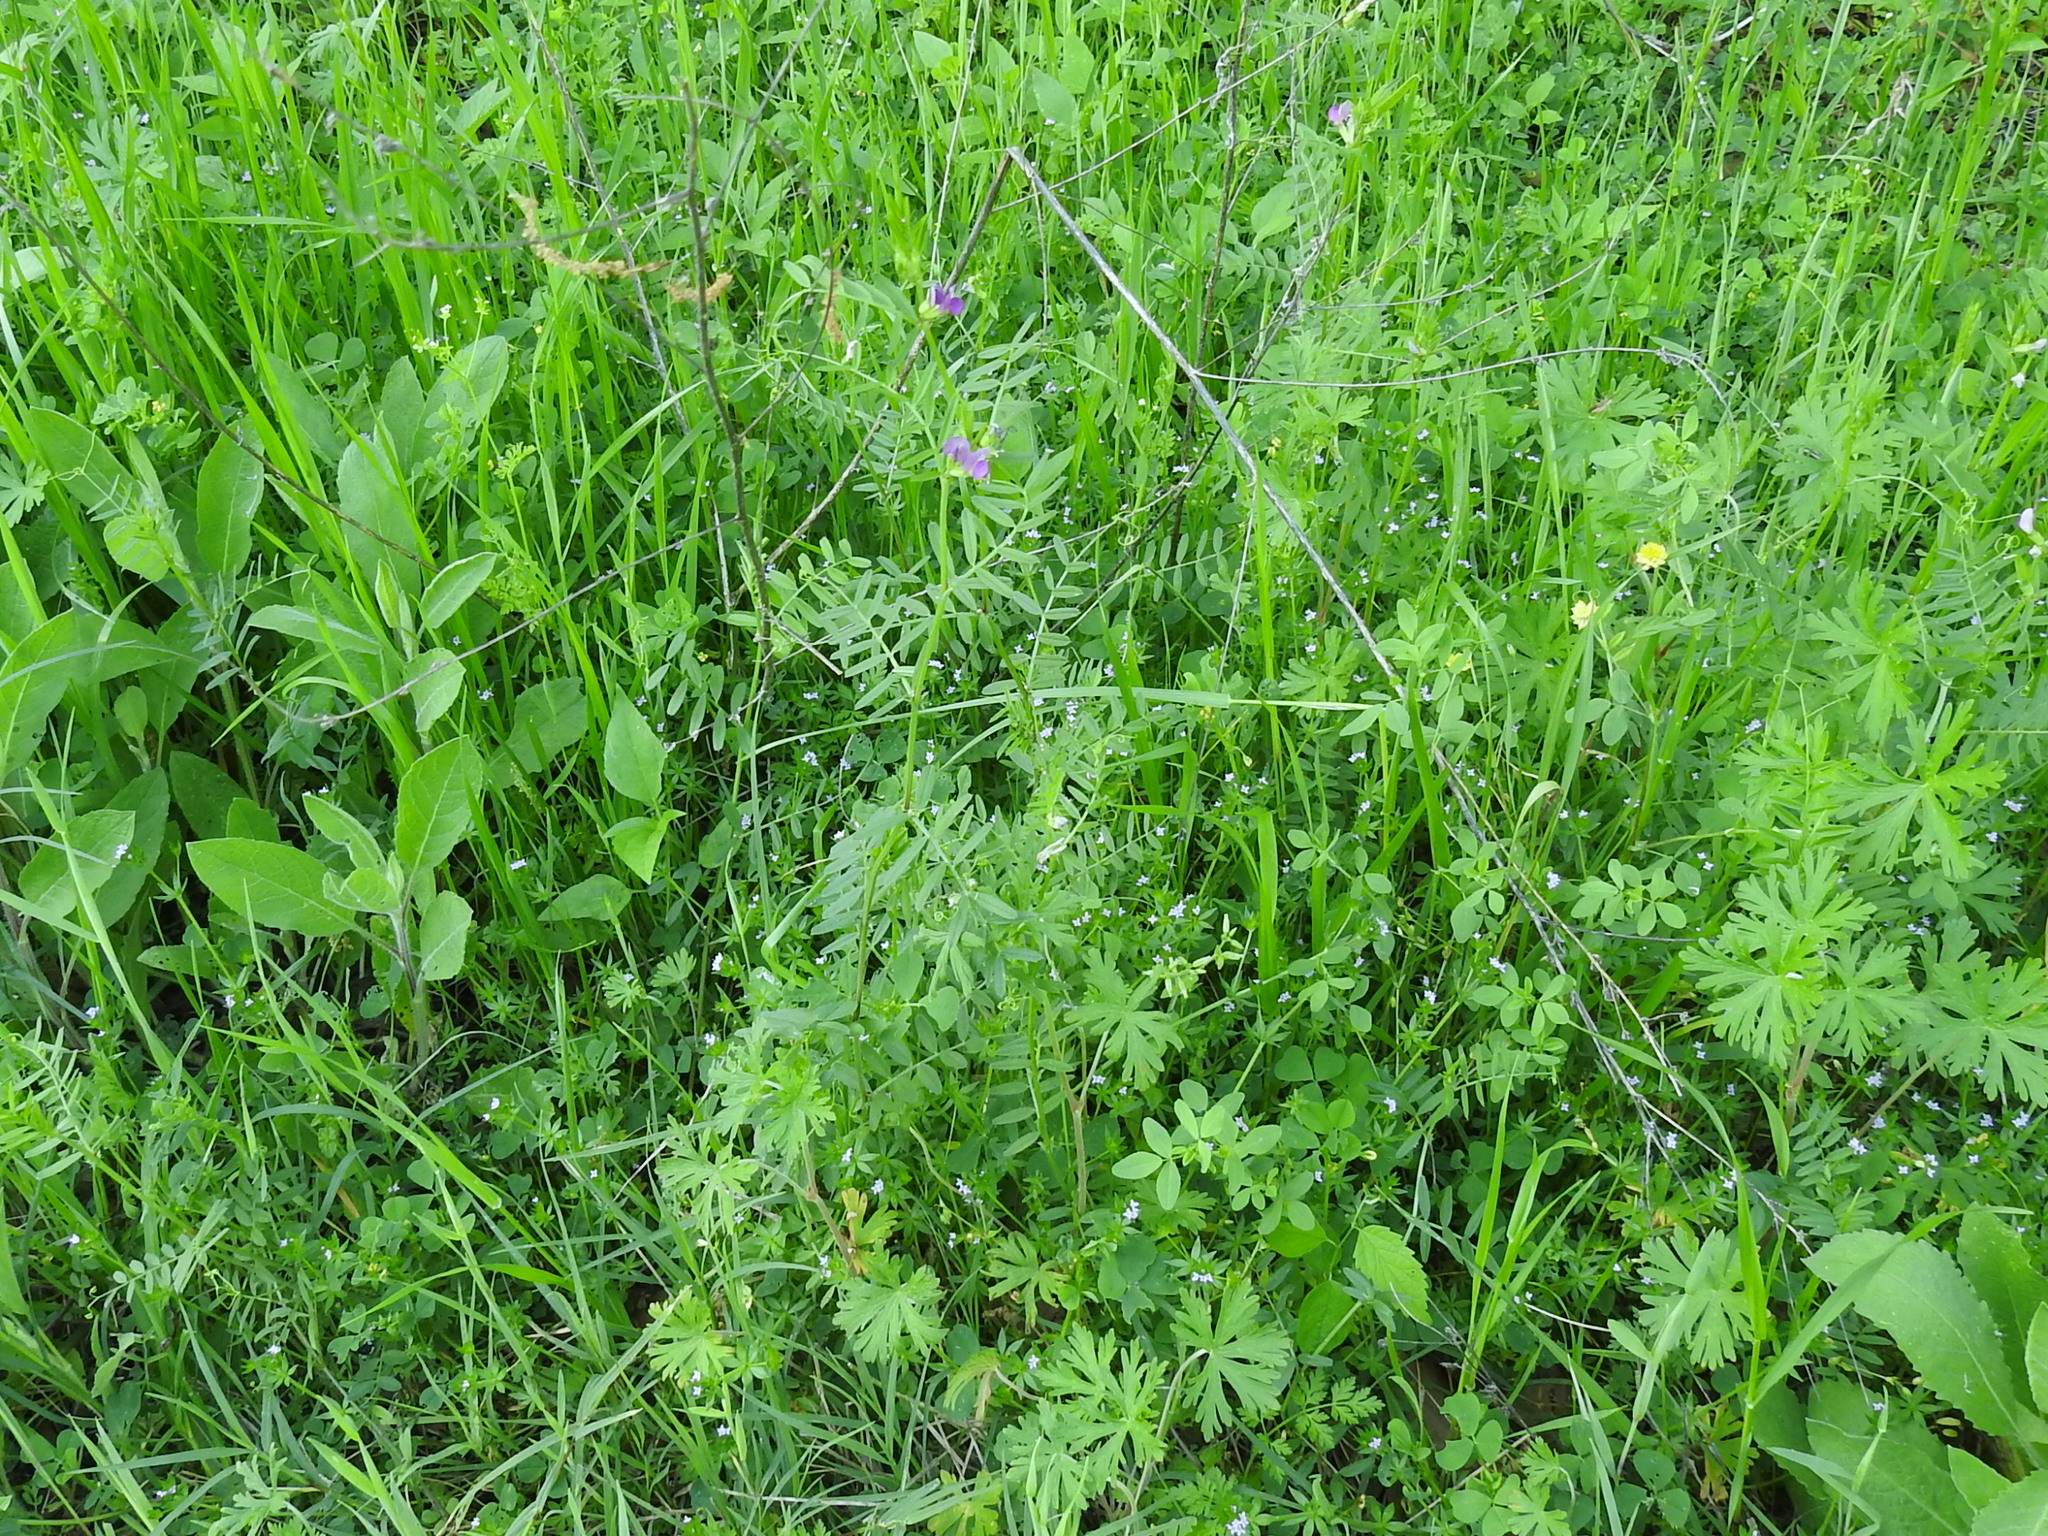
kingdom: Plantae
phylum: Tracheophyta
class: Magnoliopsida
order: Fabales
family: Fabaceae
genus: Vicia
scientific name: Vicia sativa
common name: Garden vetch
